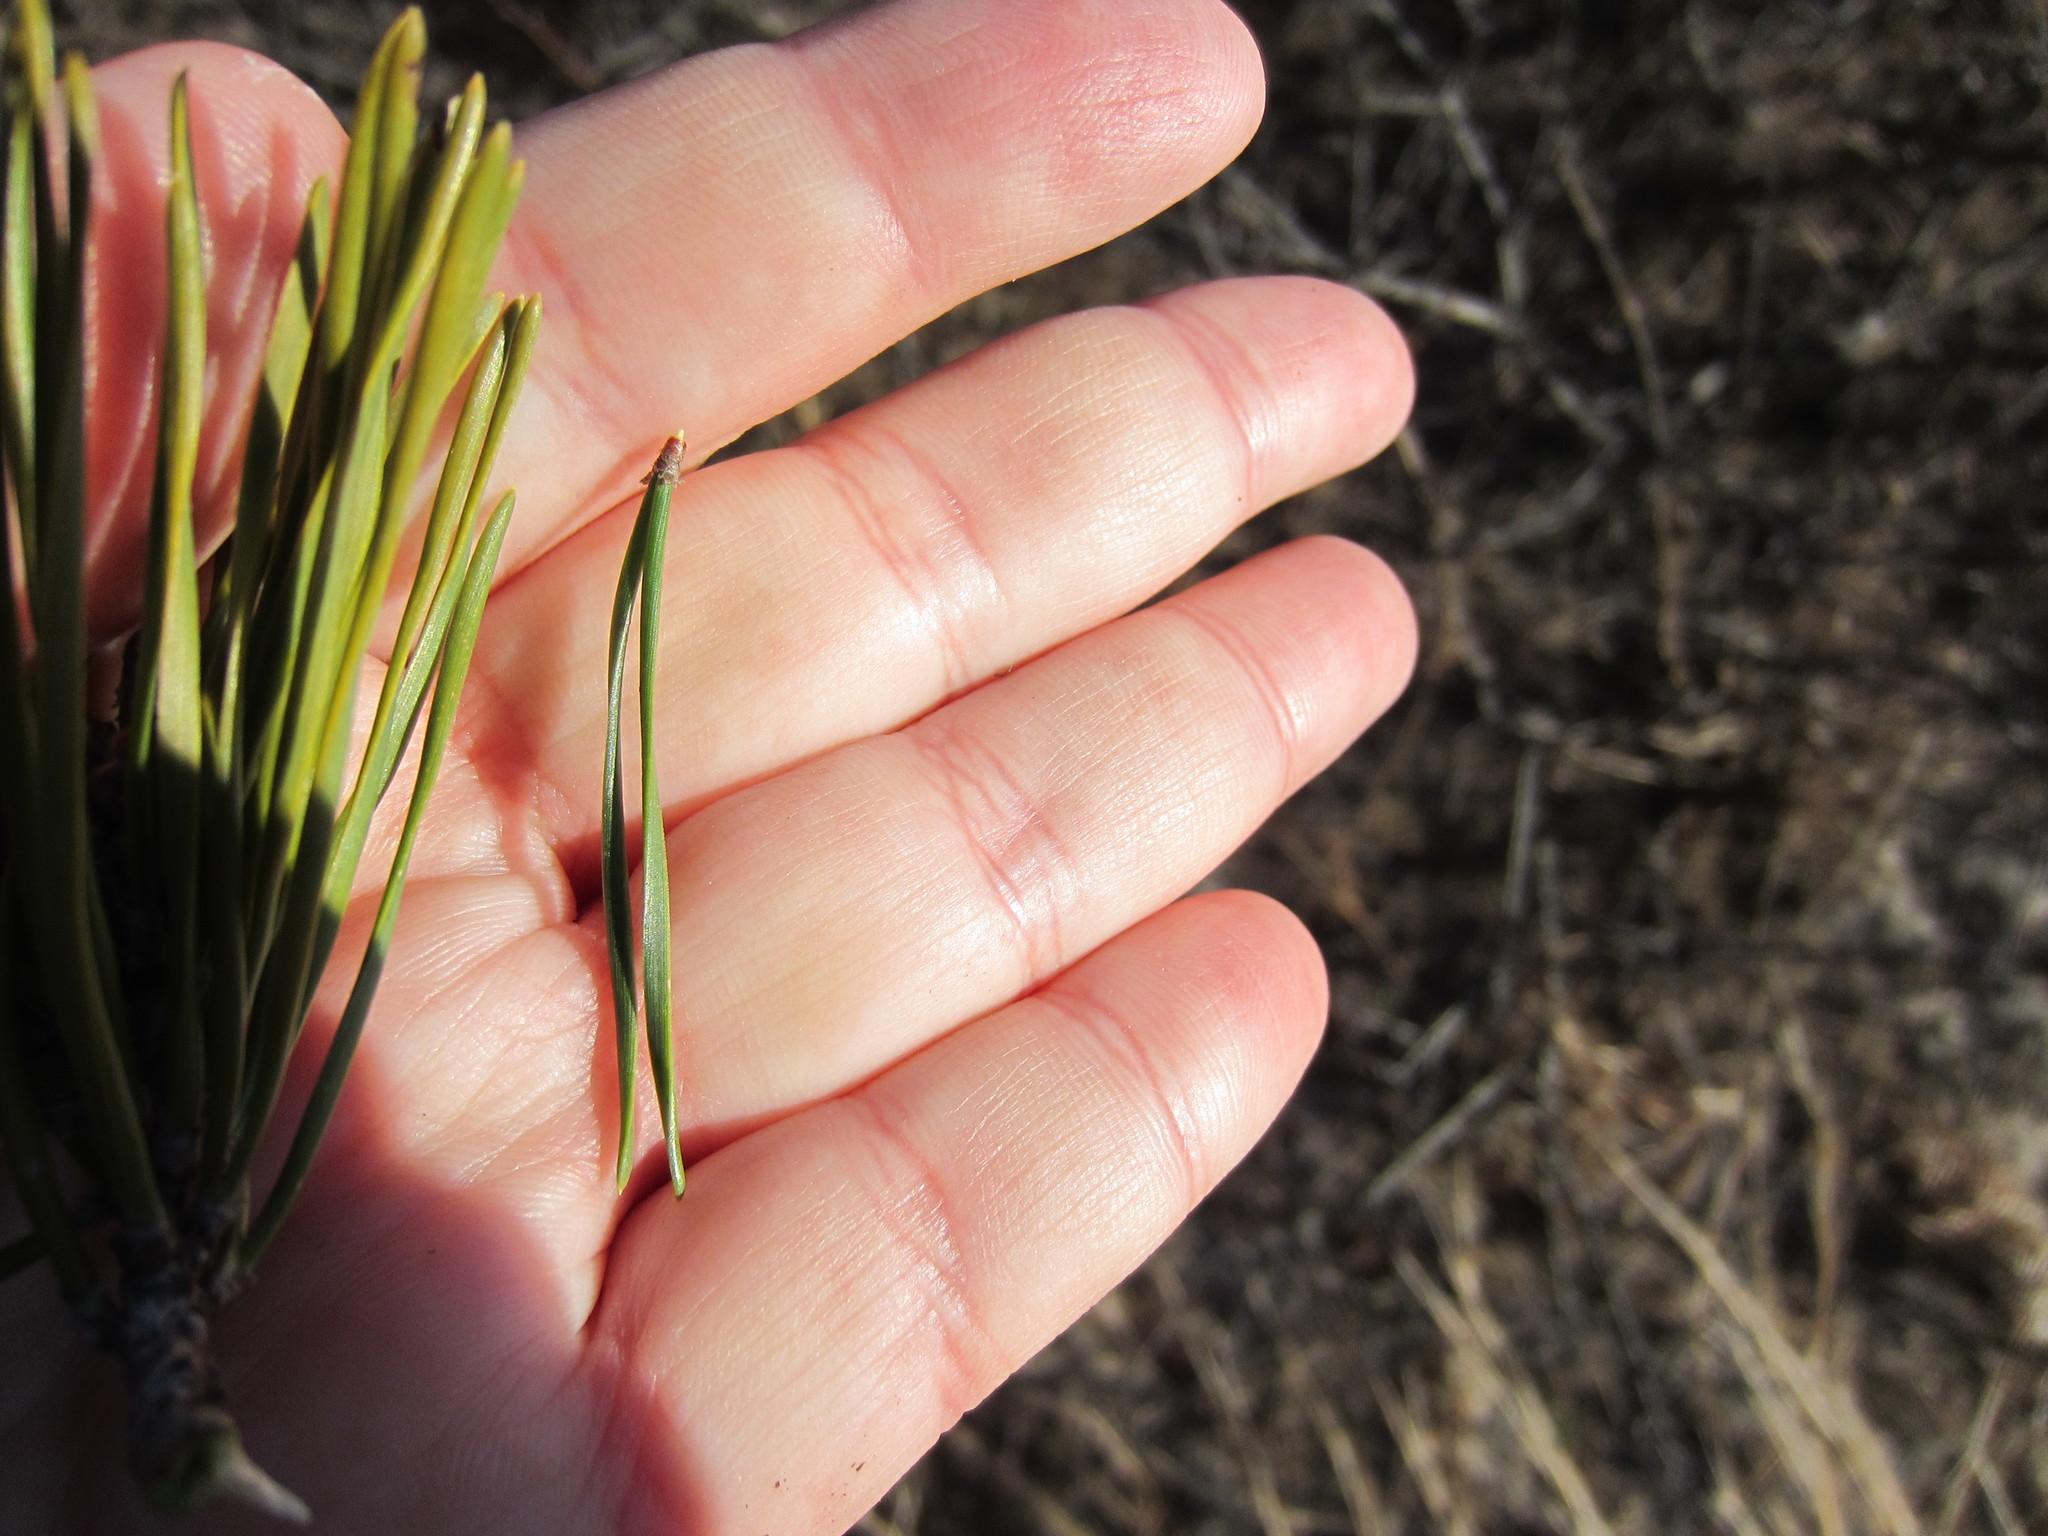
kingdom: Plantae
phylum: Tracheophyta
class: Pinopsida
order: Pinales
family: Pinaceae
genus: Pinus
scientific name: Pinus virginiana
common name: Scrub pine
